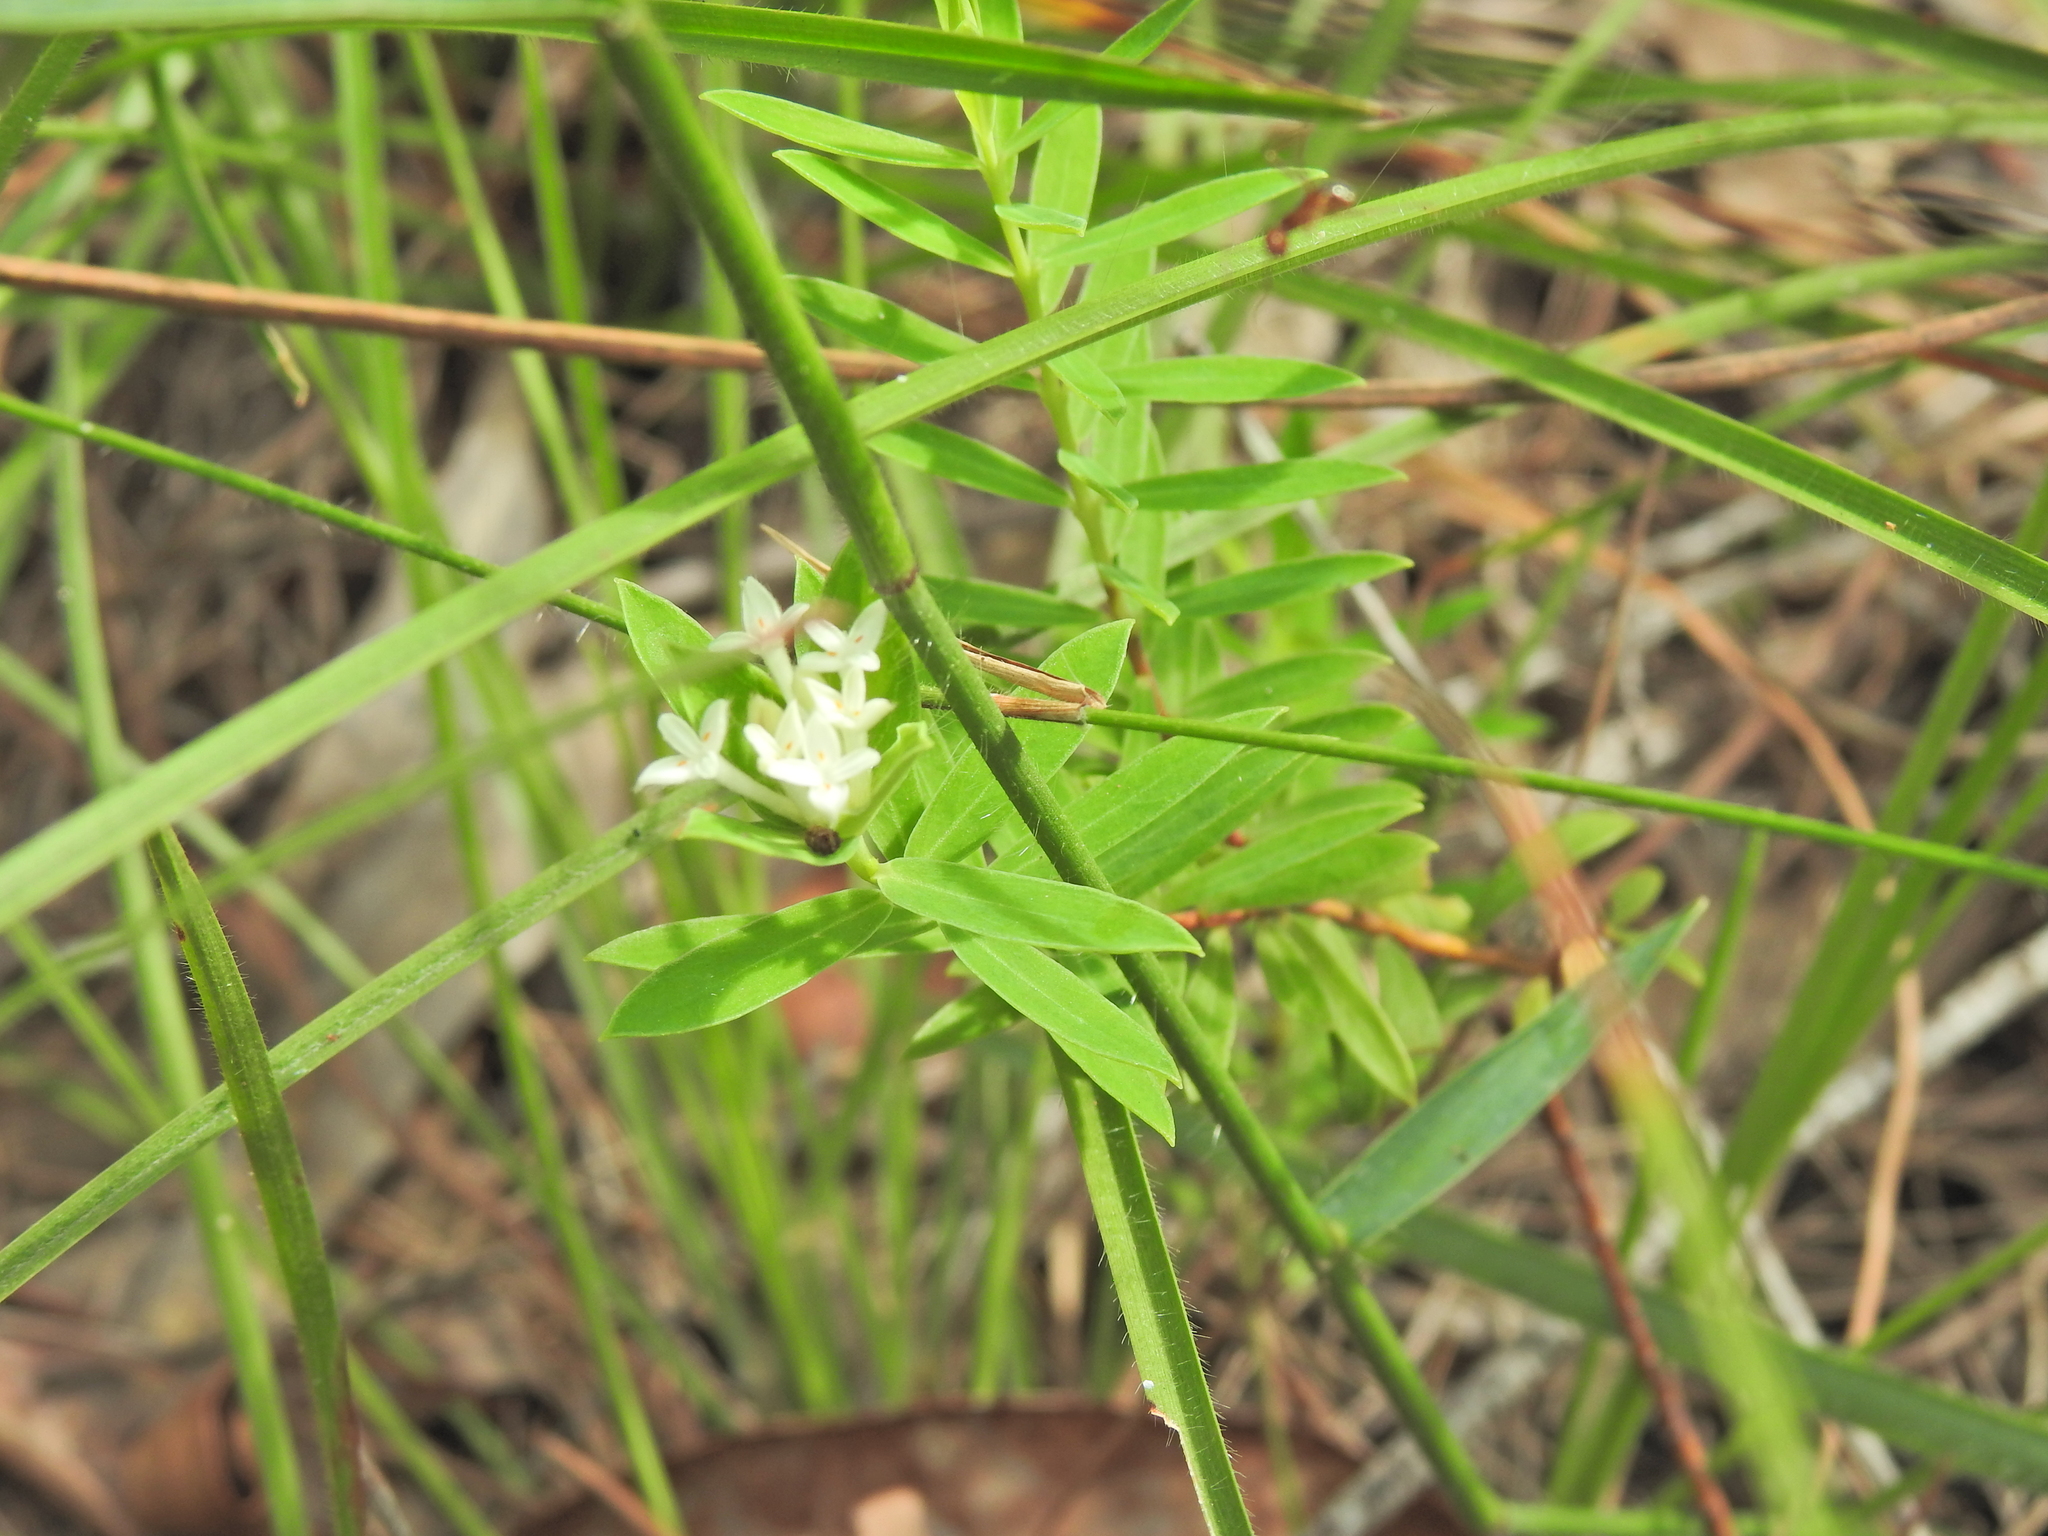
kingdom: Plantae
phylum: Tracheophyta
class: Magnoliopsida
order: Malvales
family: Thymelaeaceae
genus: Pimelea
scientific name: Pimelea linifolia
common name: Queen-of-the-bush
